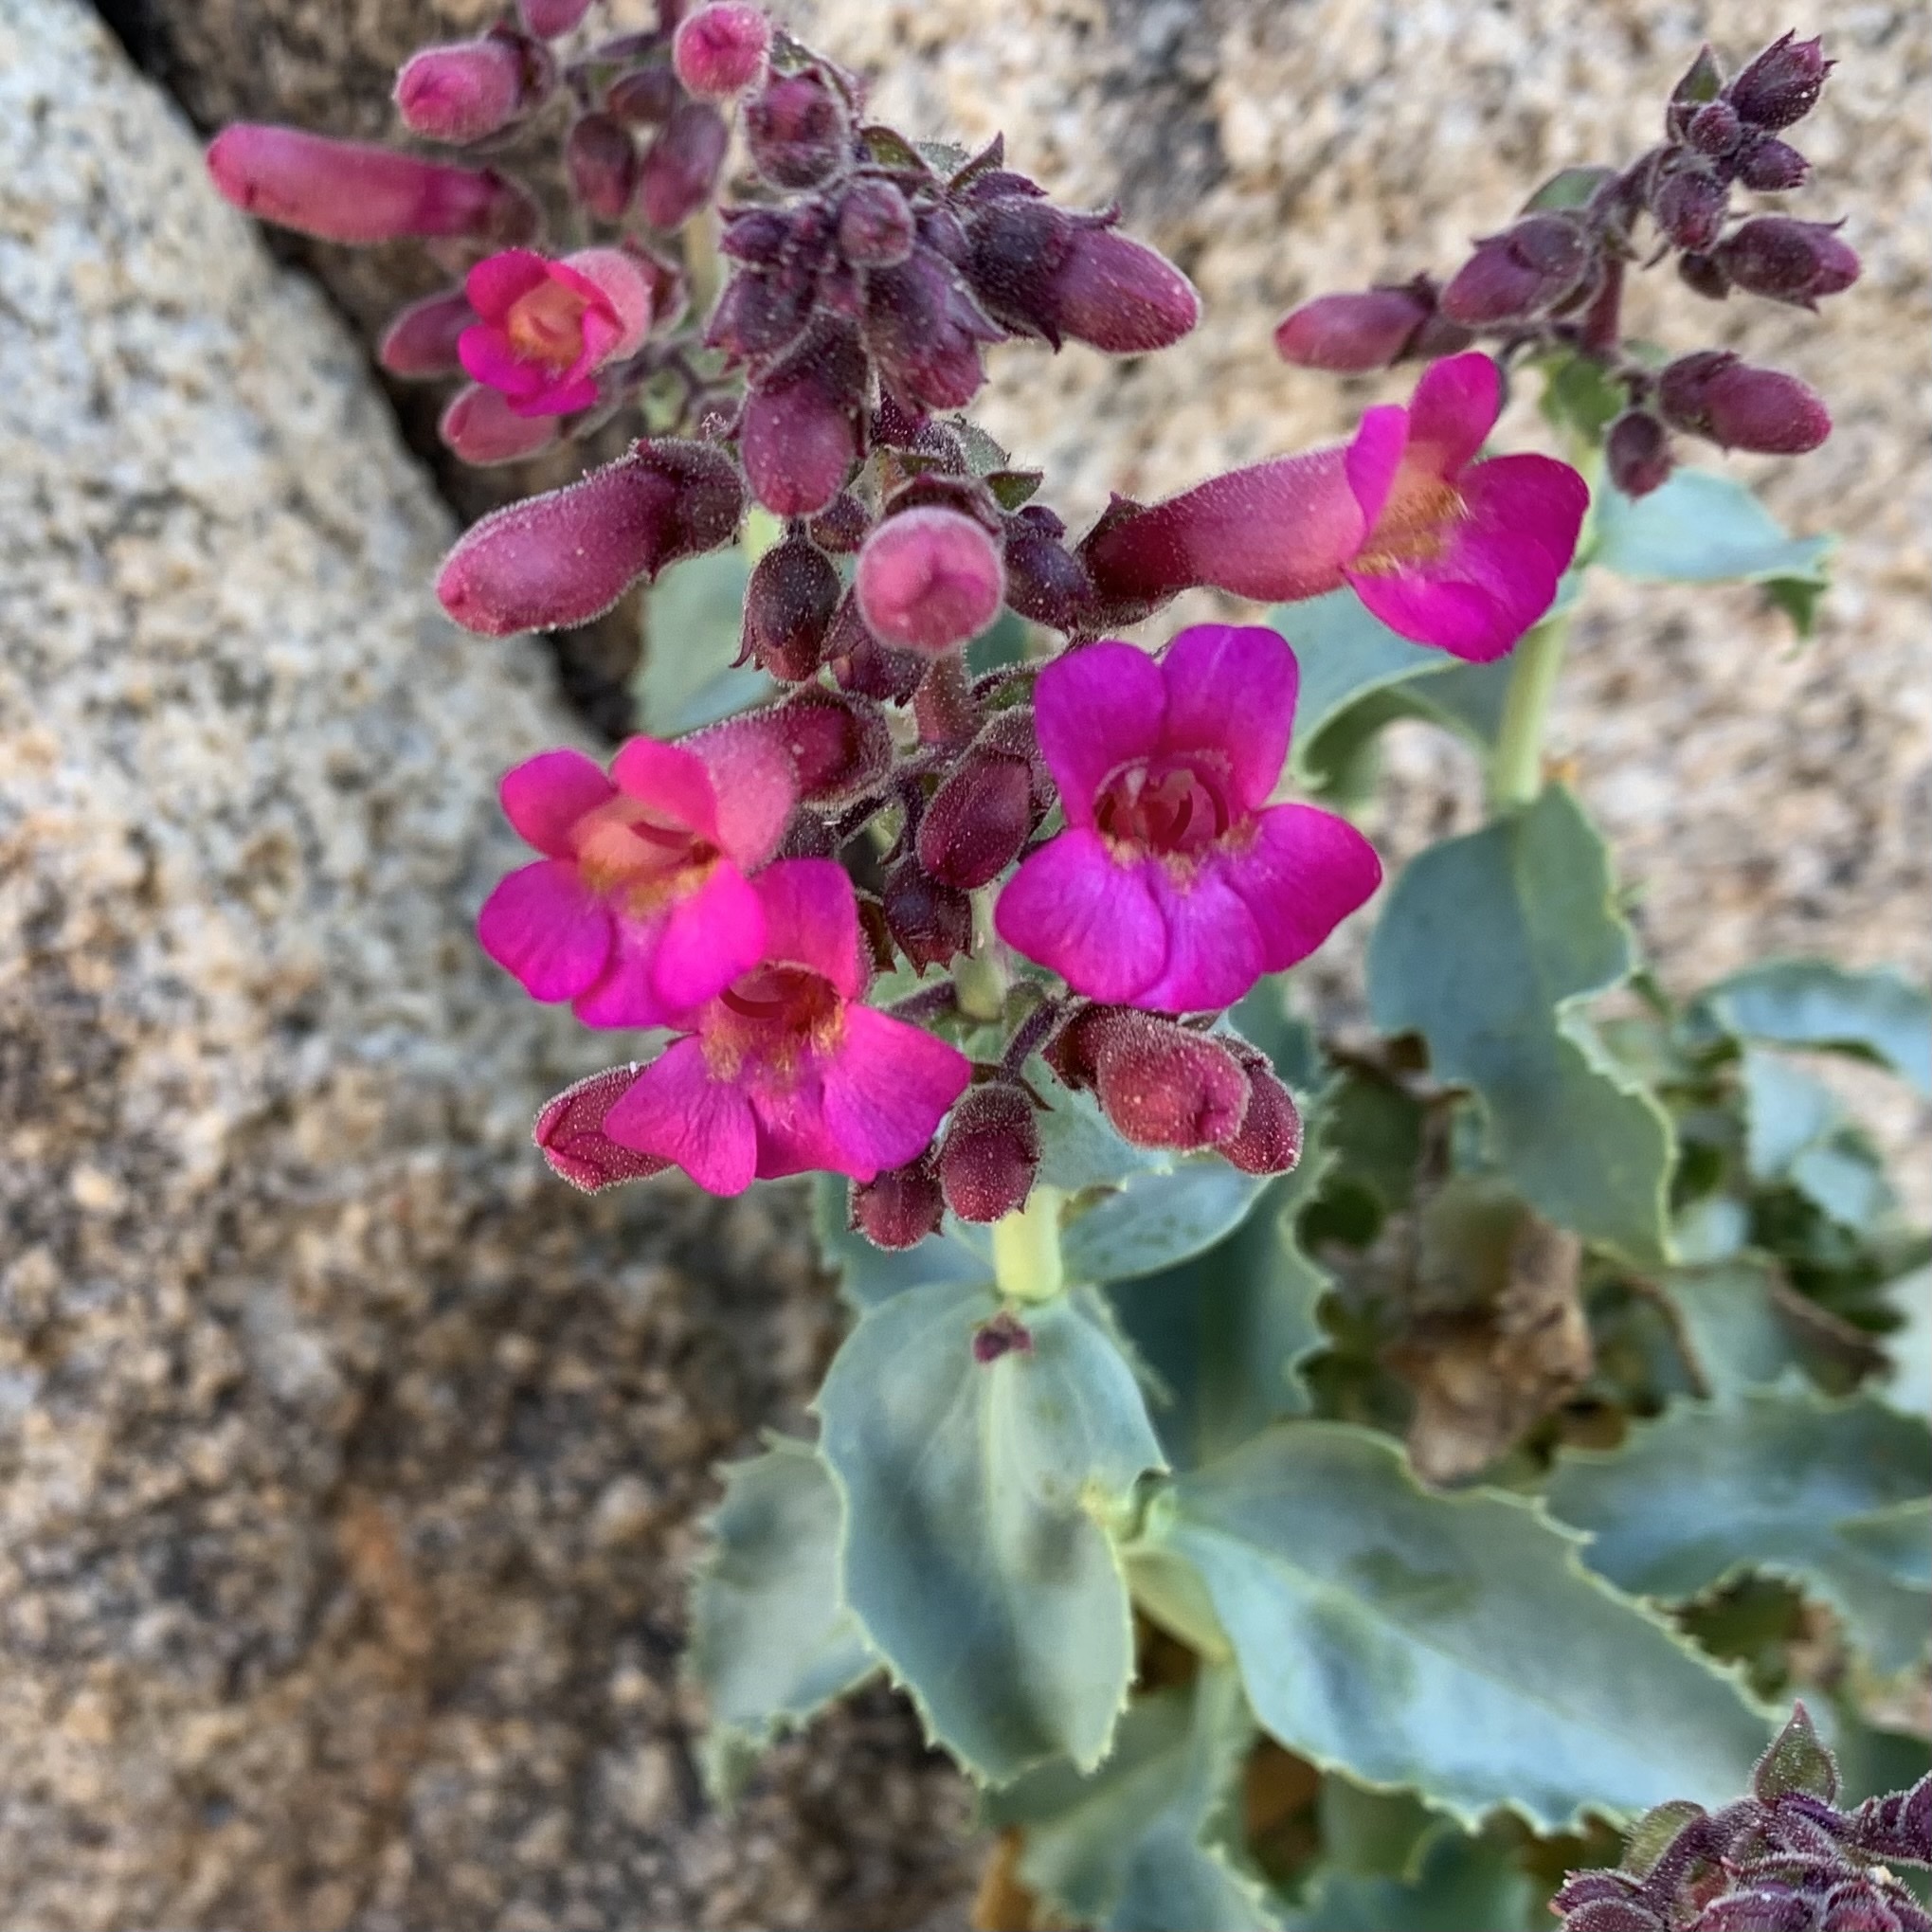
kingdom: Plantae
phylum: Tracheophyta
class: Magnoliopsida
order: Lamiales
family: Plantaginaceae
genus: Penstemon
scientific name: Penstemon clevelandii
